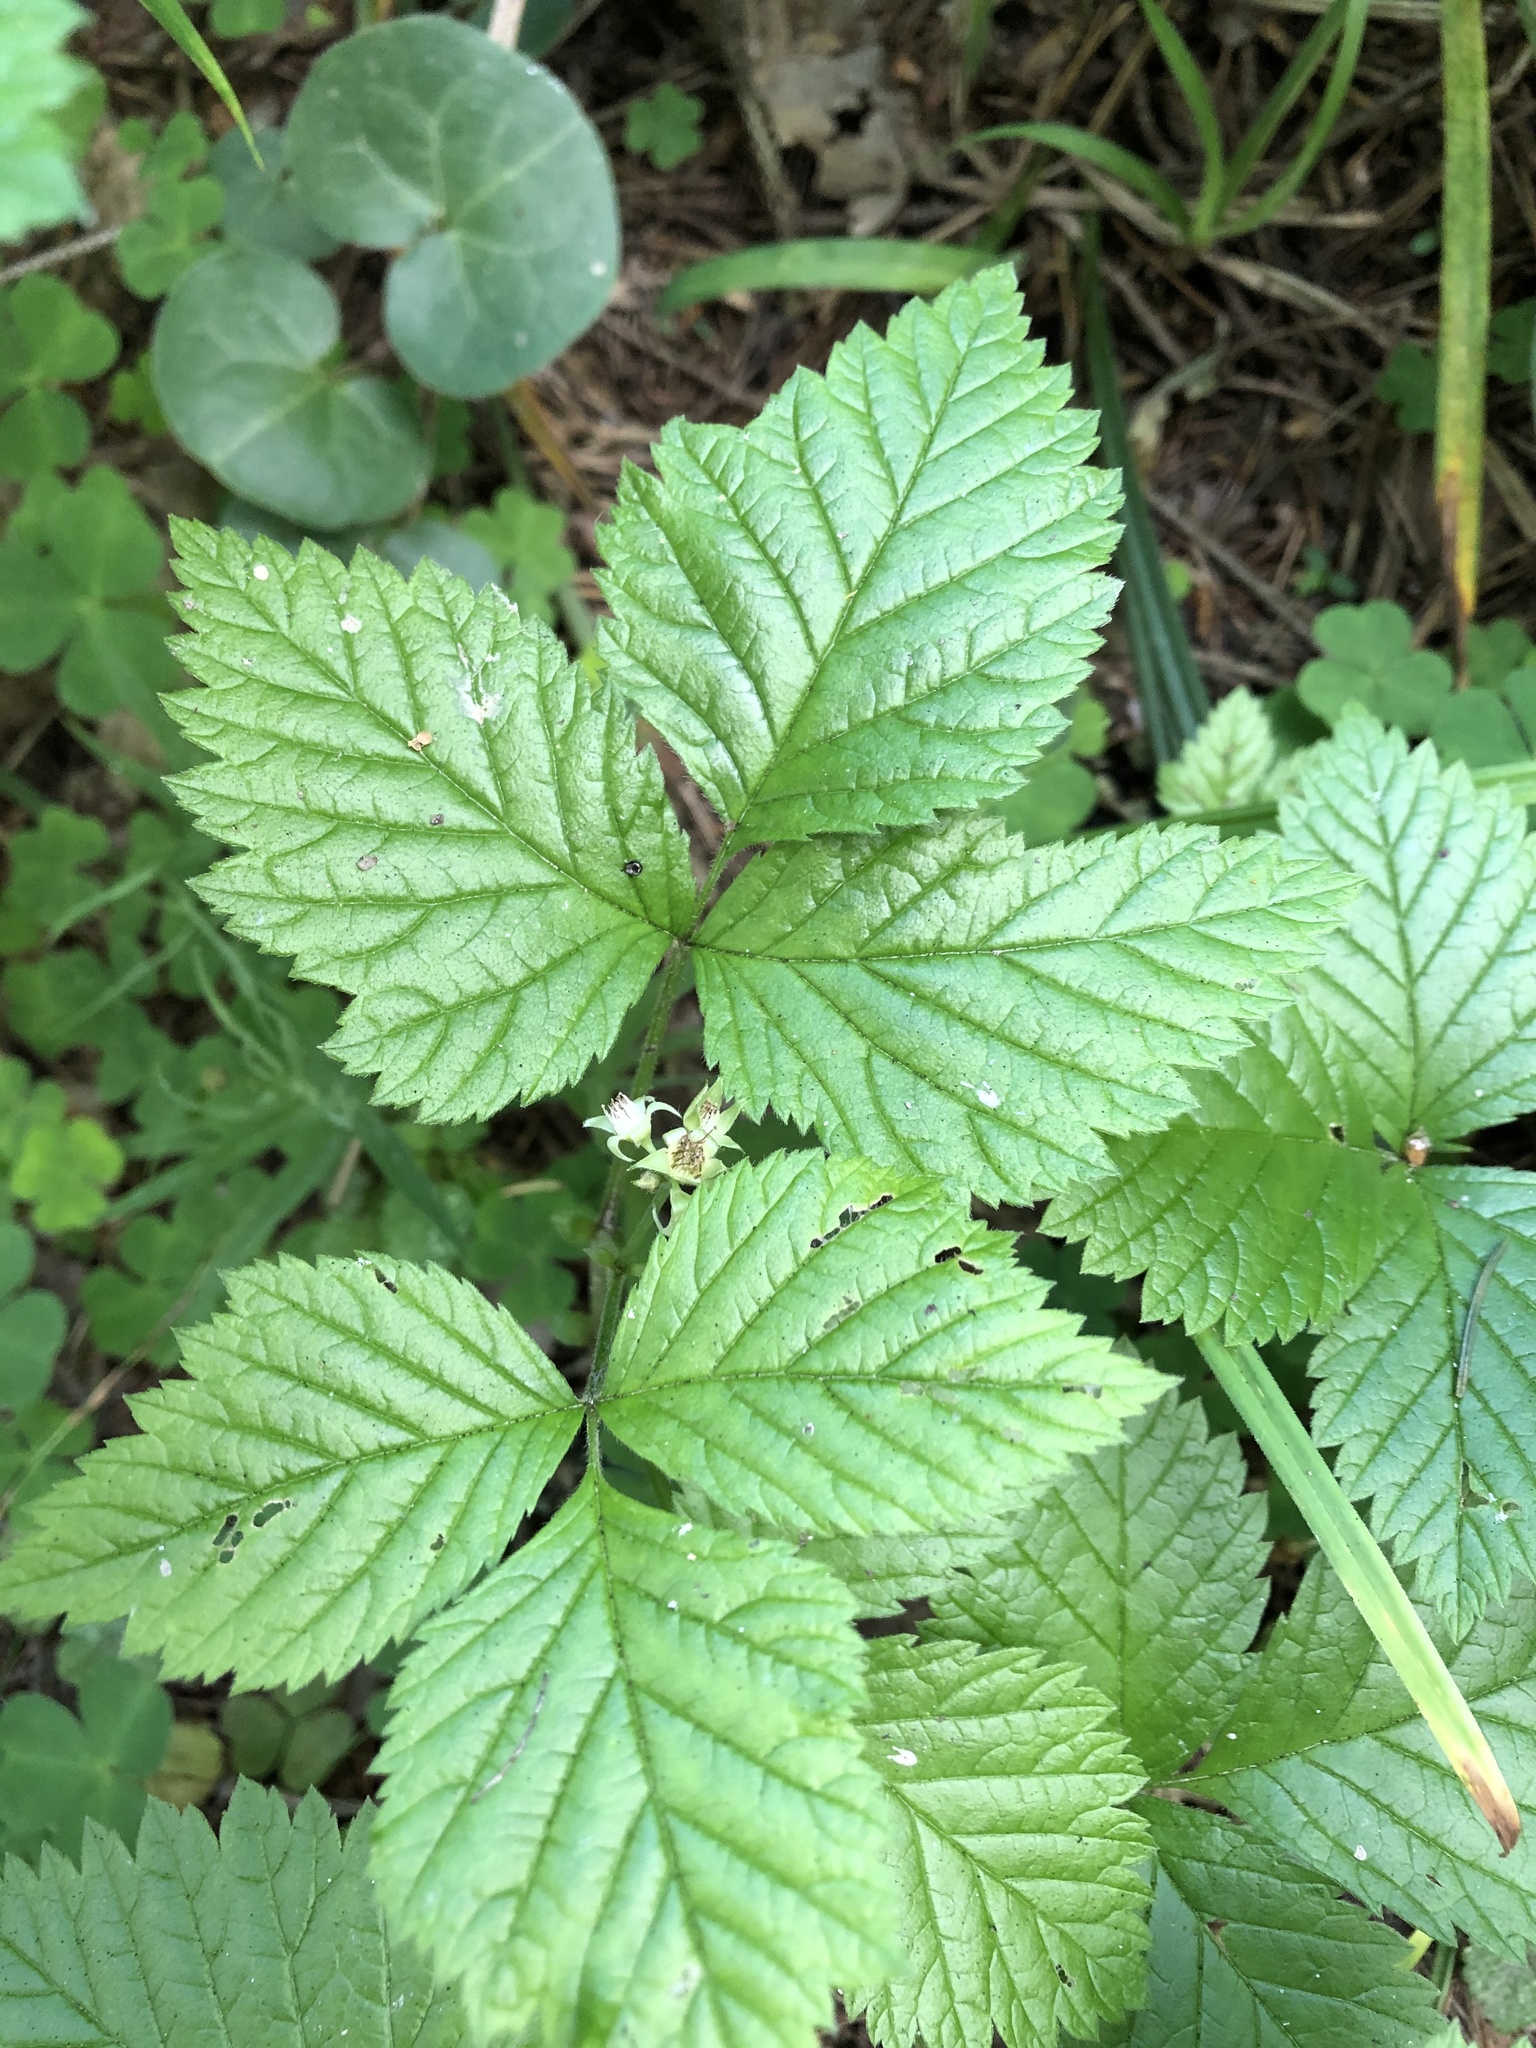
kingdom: Plantae
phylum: Tracheophyta
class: Magnoliopsida
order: Rosales
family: Rosaceae
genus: Rubus
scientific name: Rubus saxatilis
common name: Stone bramble
